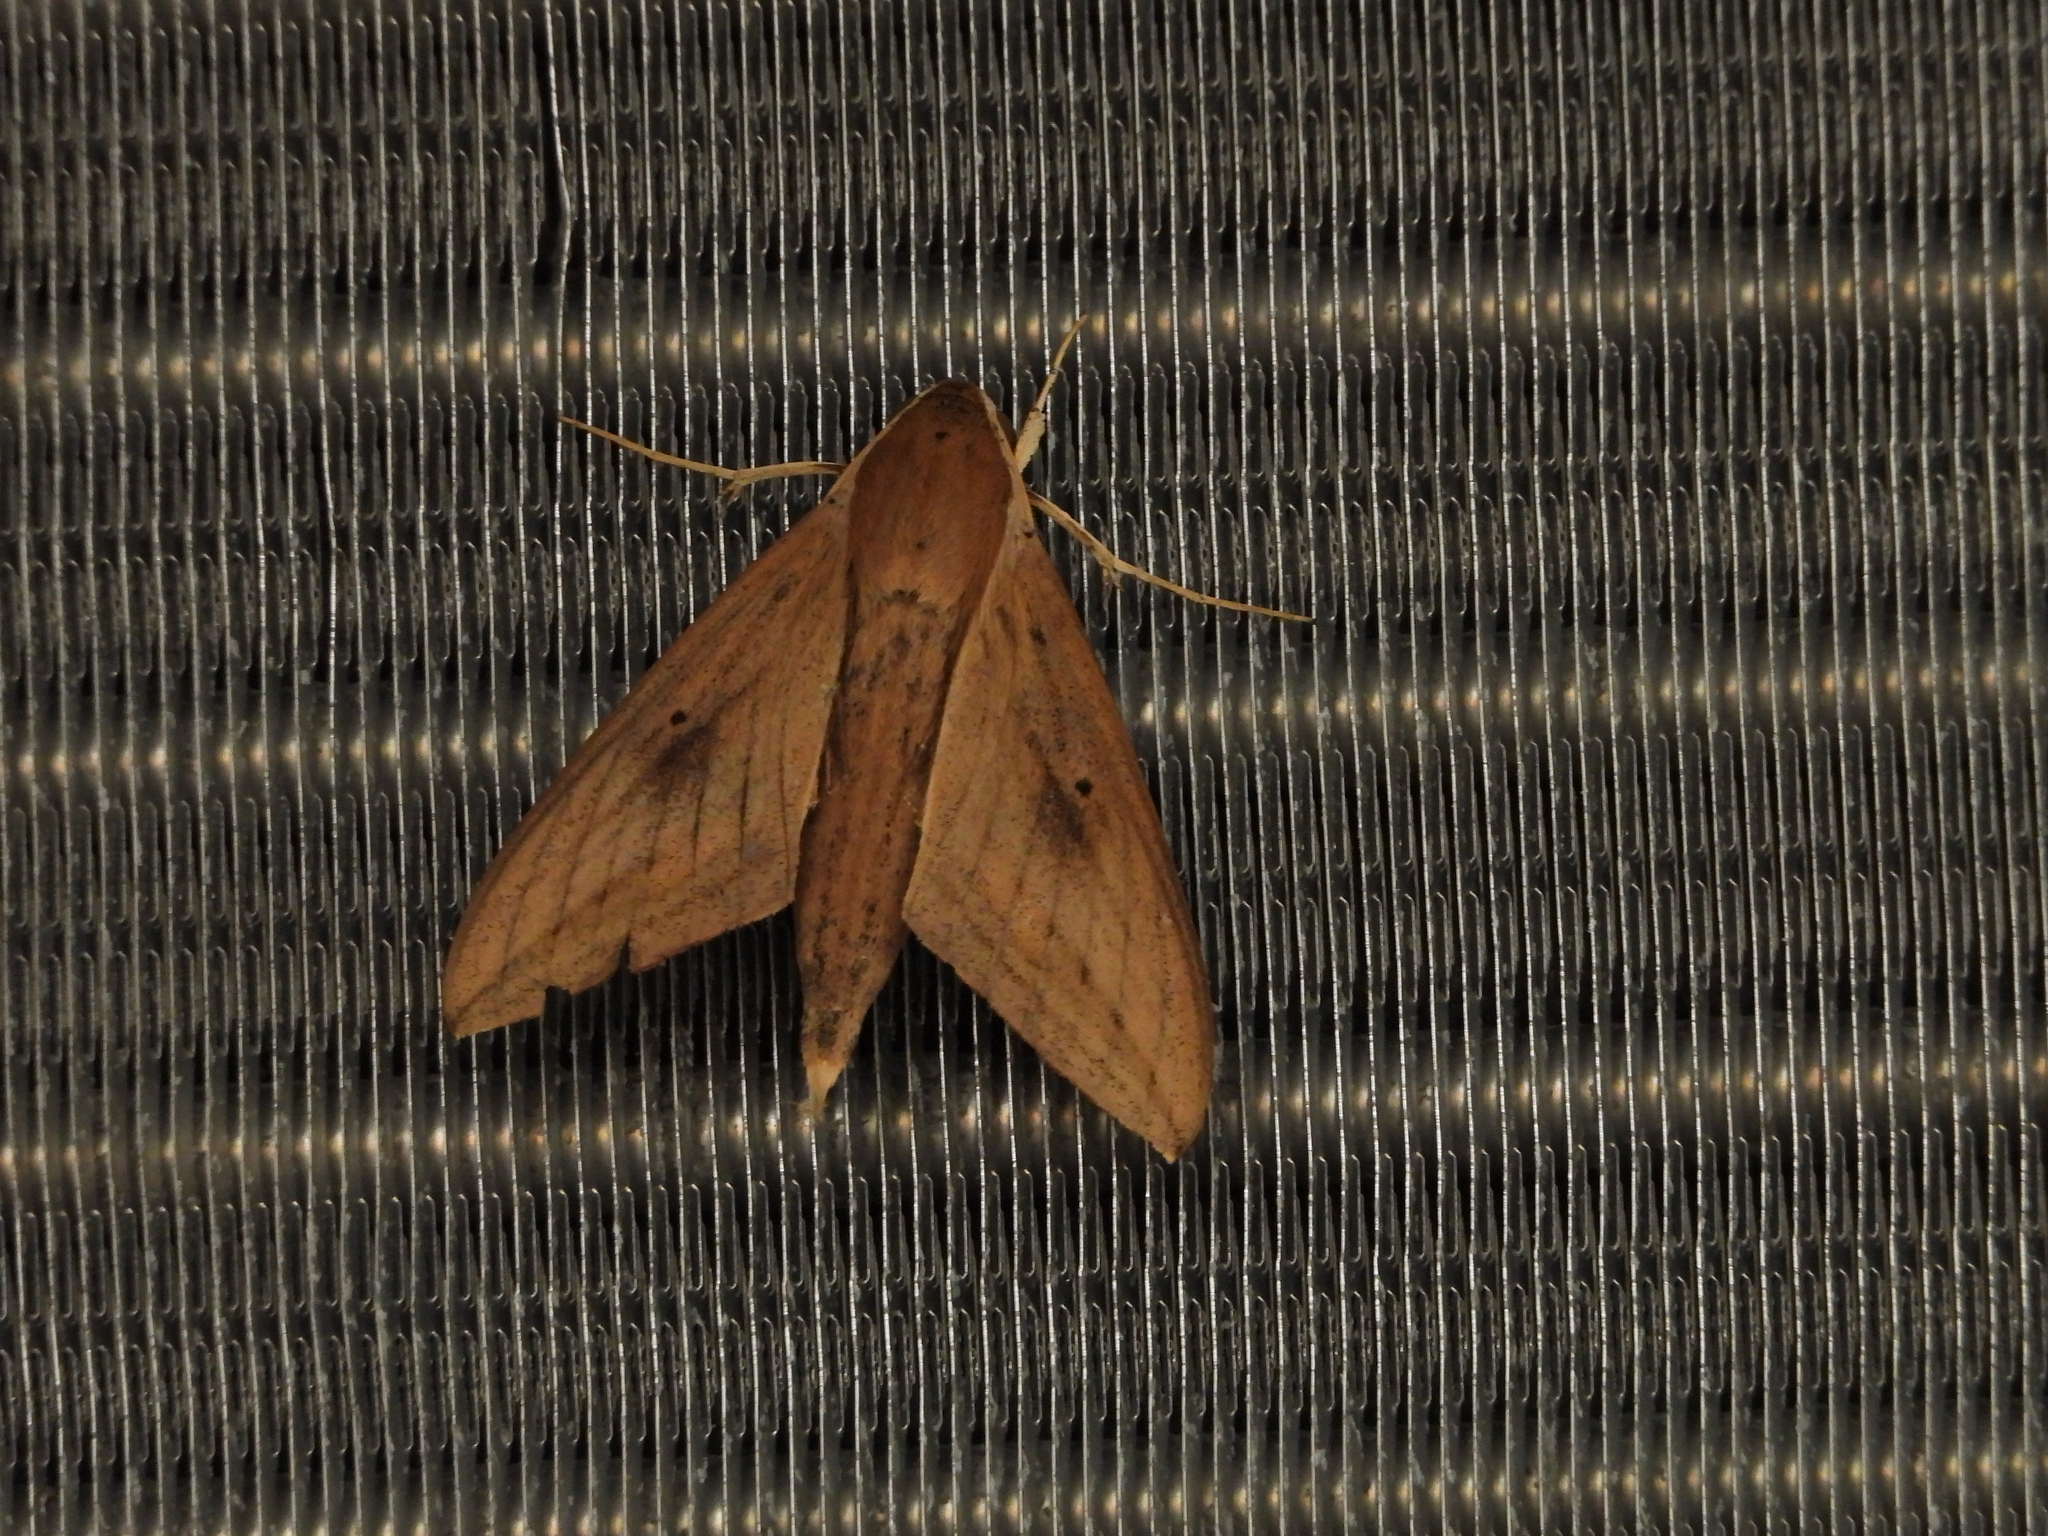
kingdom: Animalia
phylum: Arthropoda
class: Insecta
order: Lepidoptera
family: Sphingidae
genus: Theretra
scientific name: Theretra rhesus
